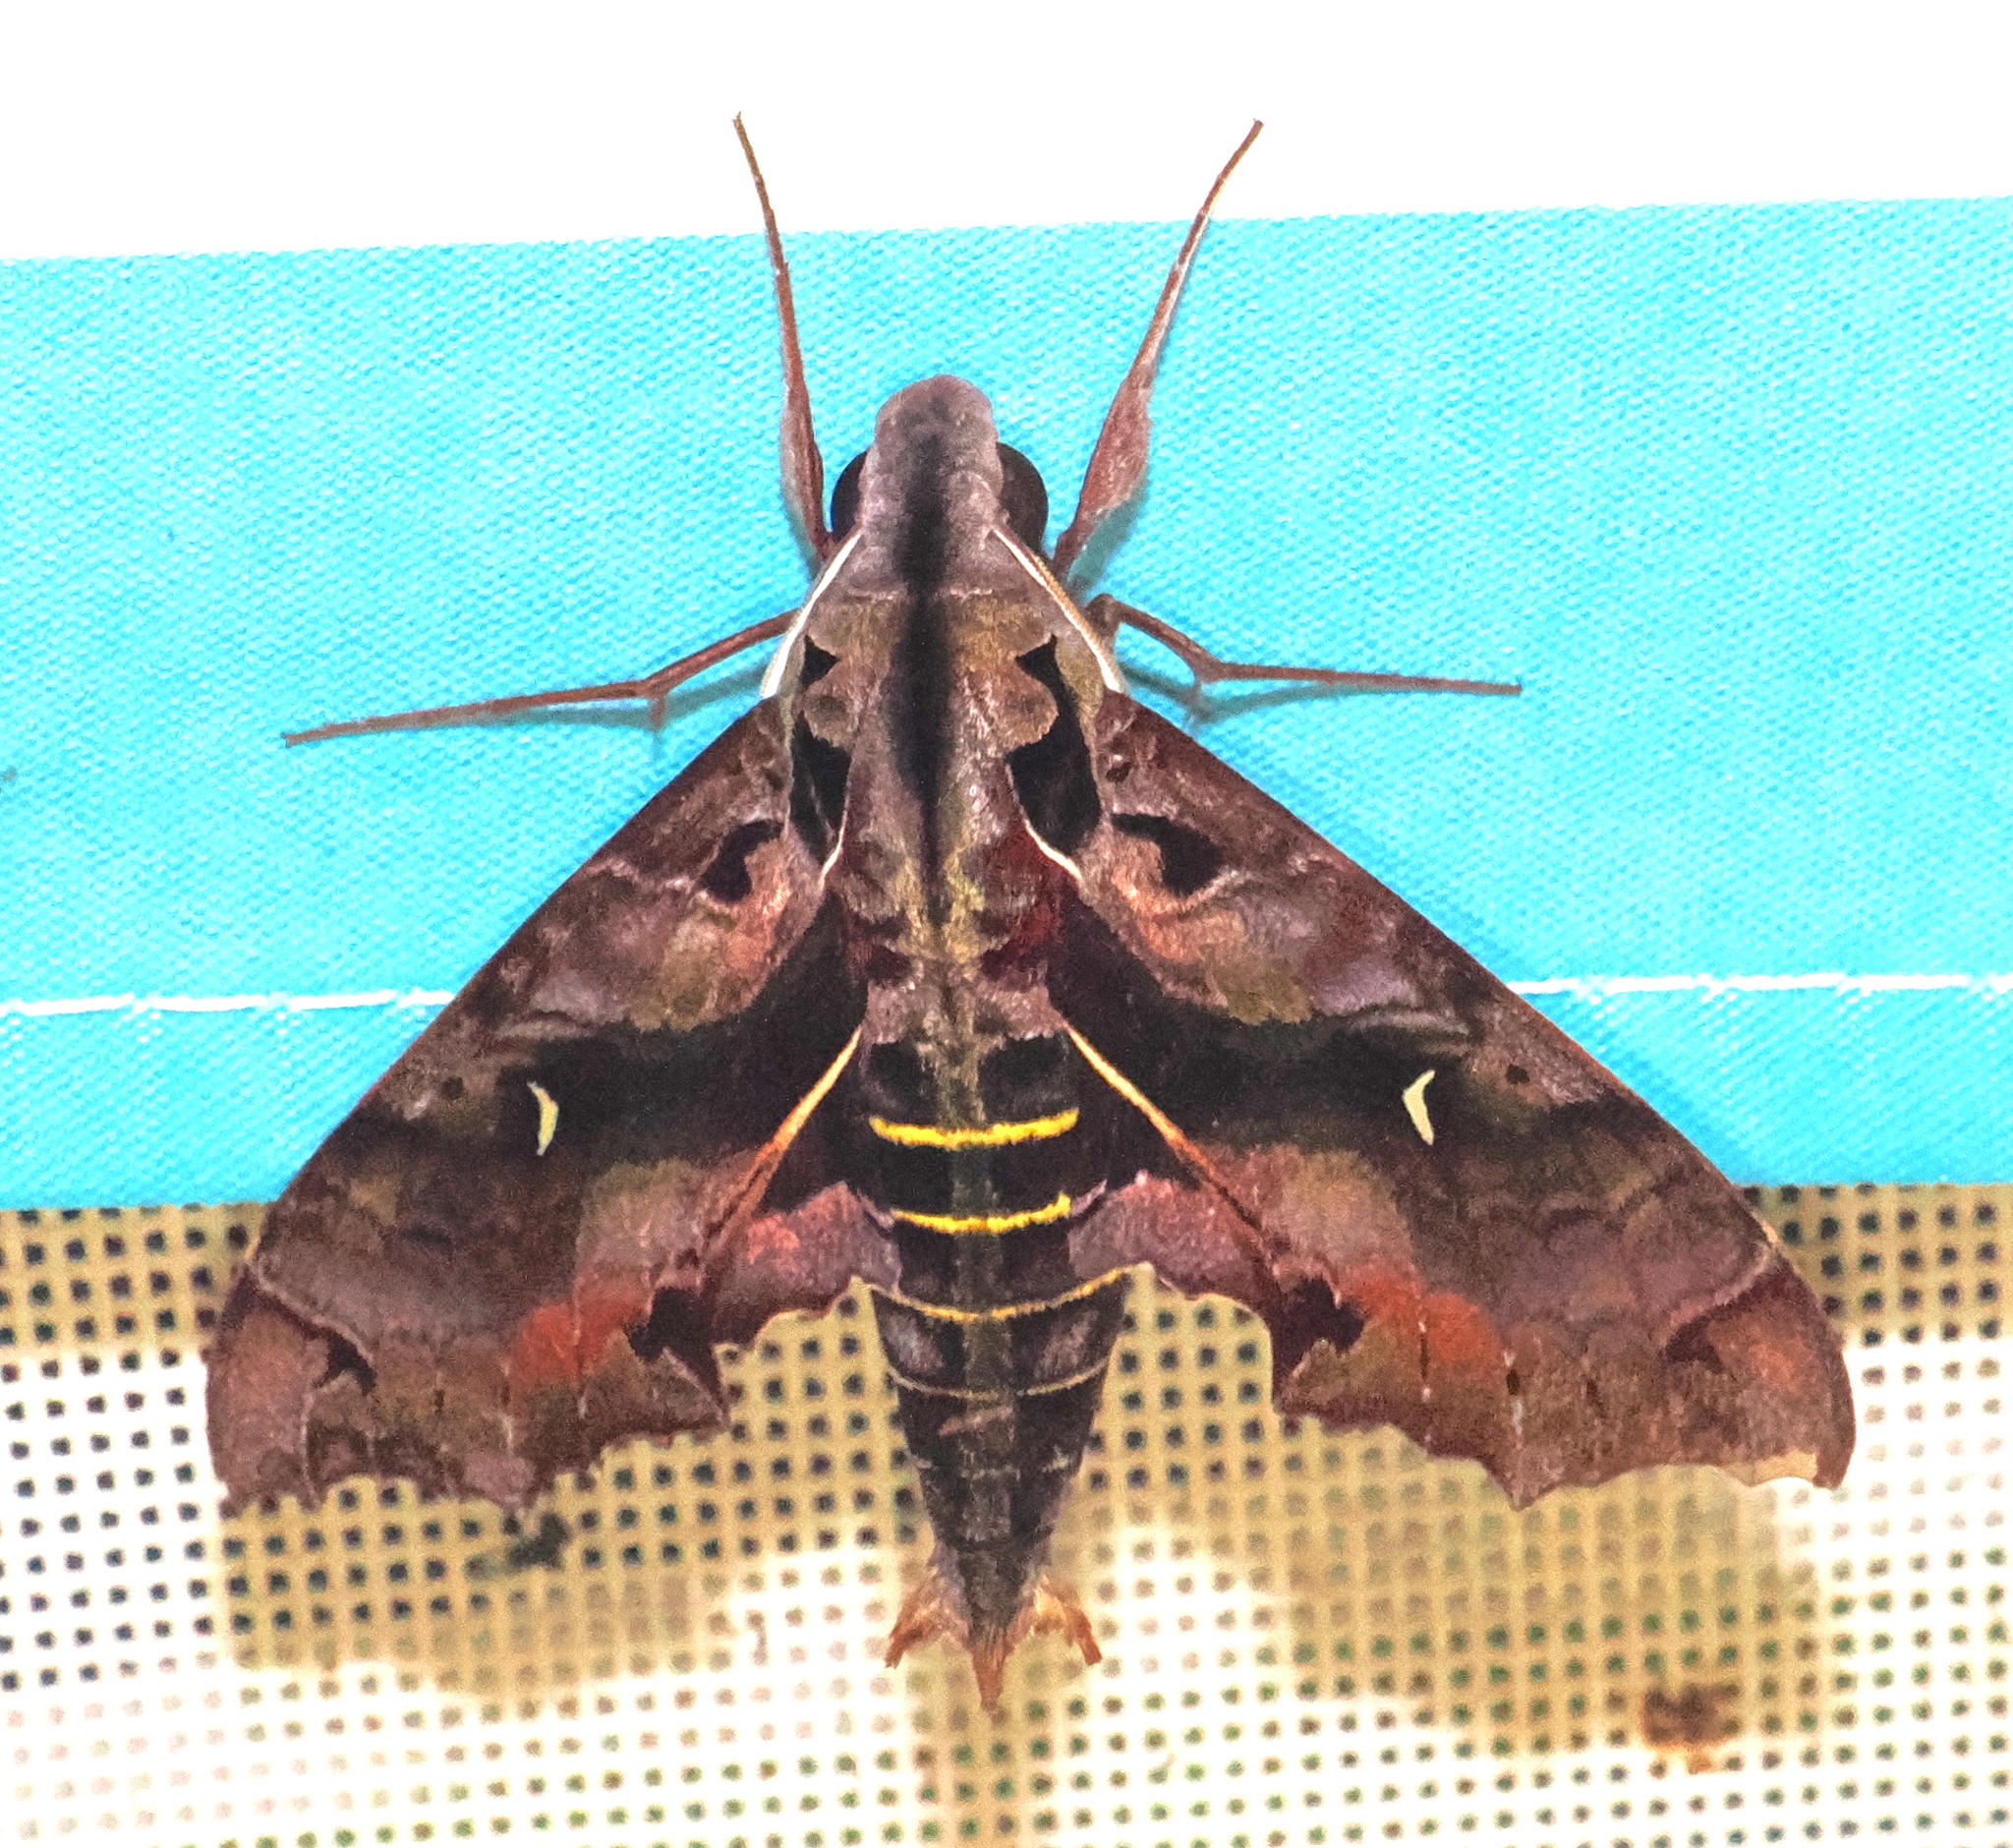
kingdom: Animalia
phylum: Arthropoda
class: Insecta
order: Lepidoptera
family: Sphingidae
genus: Hemeroplanes
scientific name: Hemeroplanes diffusa
